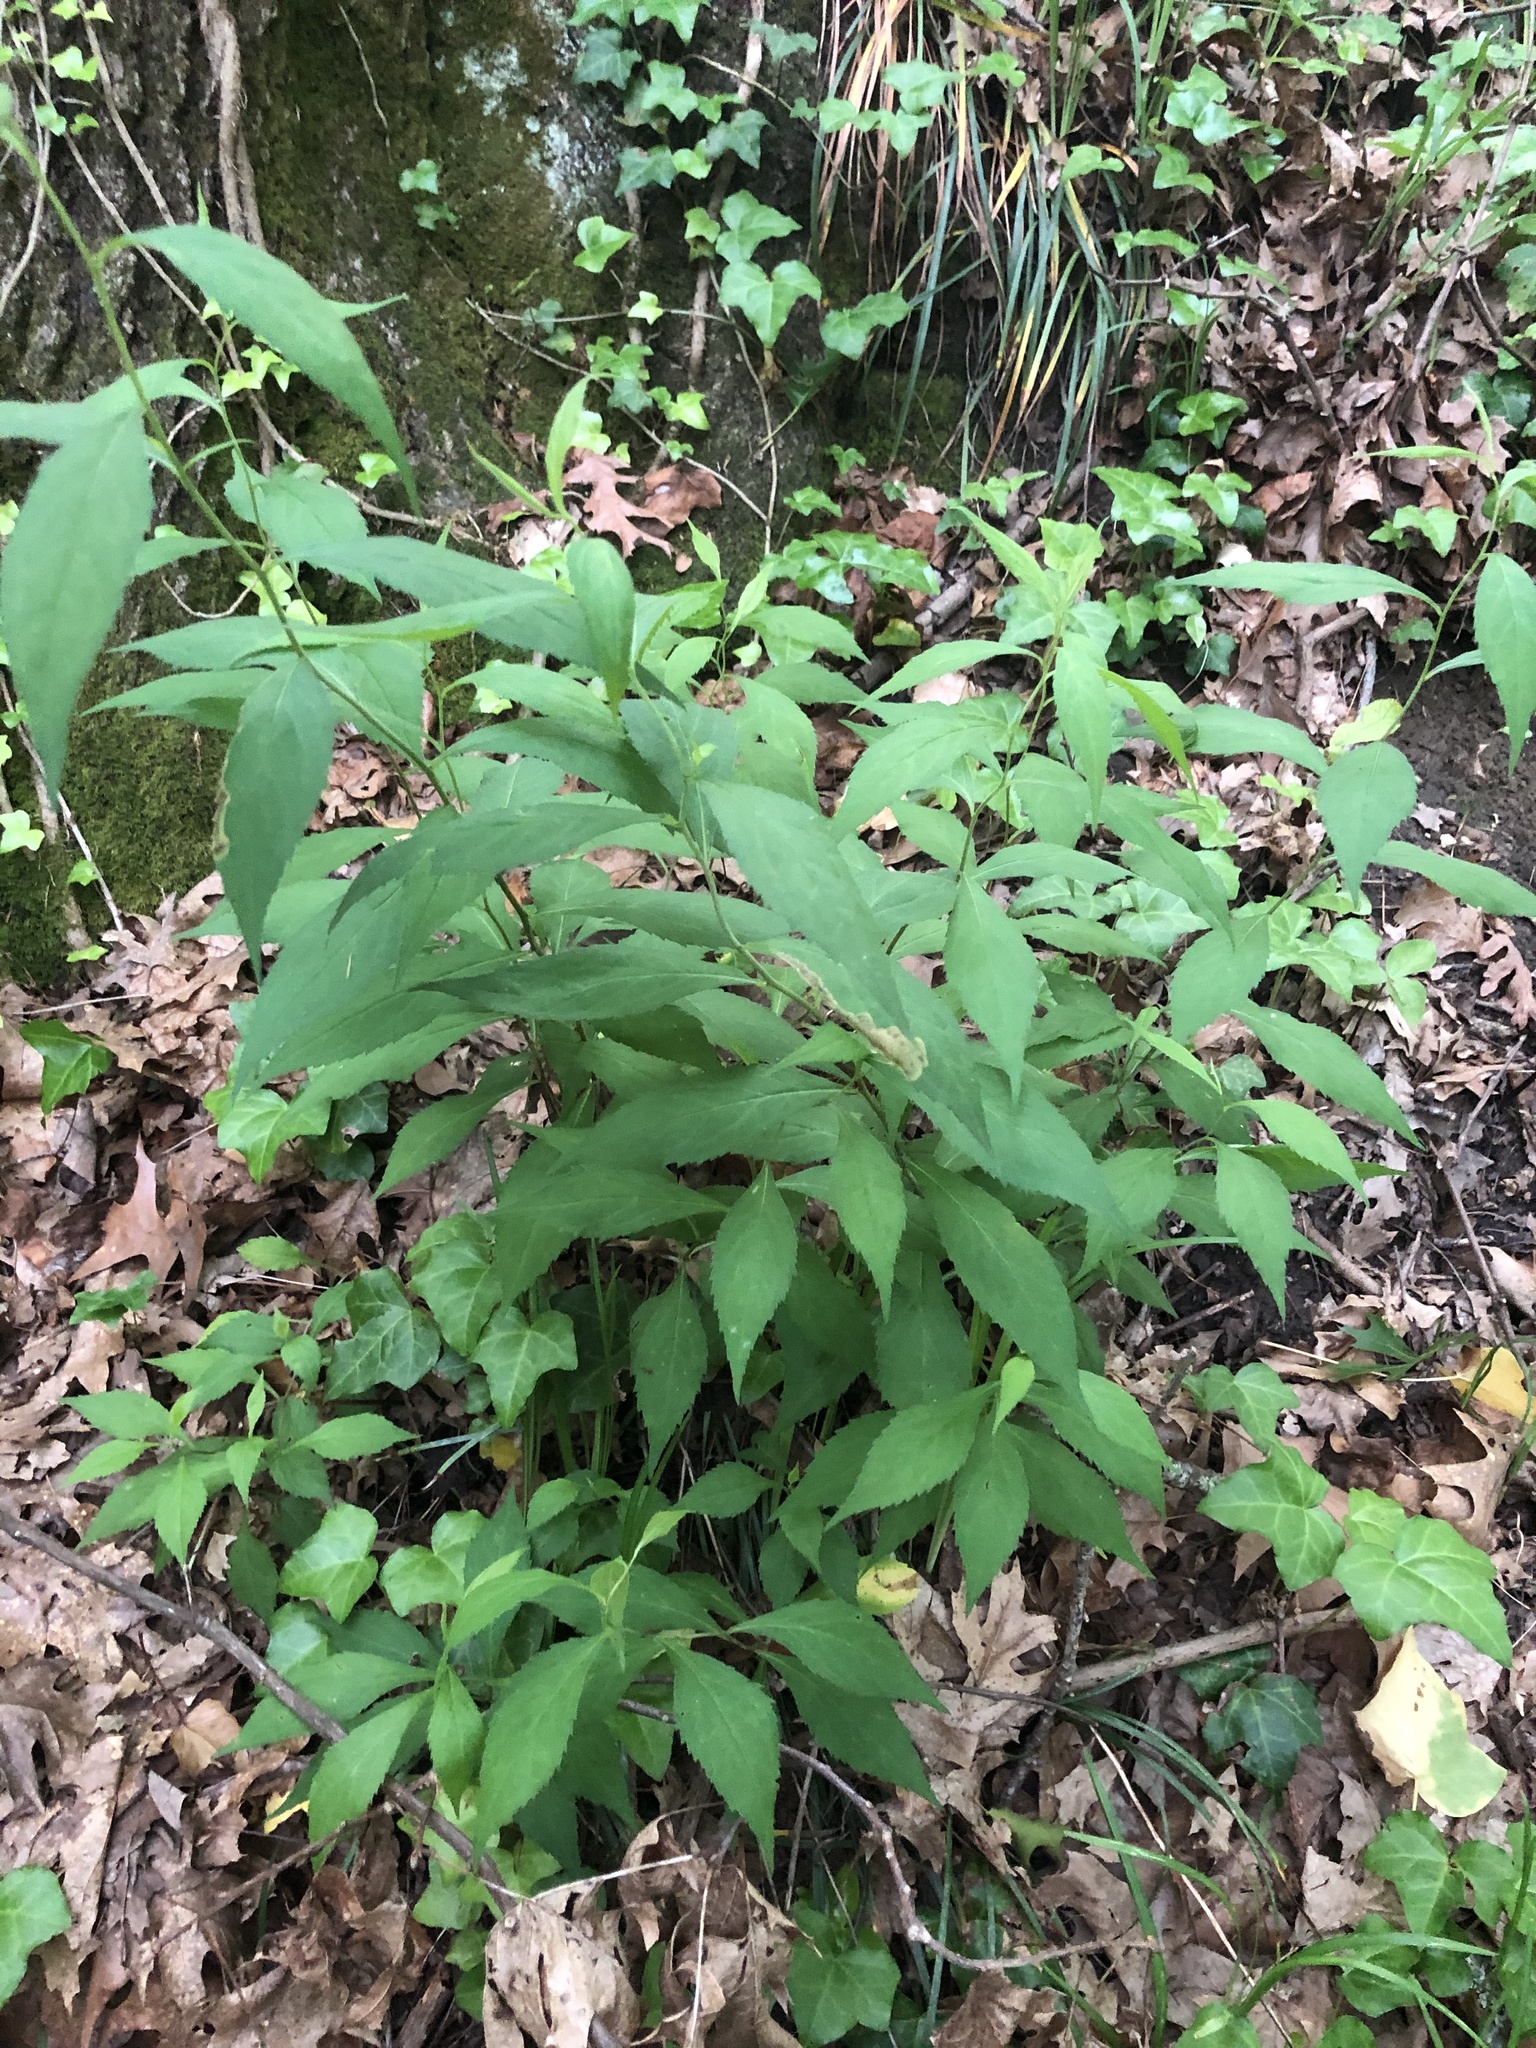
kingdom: Plantae
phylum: Tracheophyta
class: Magnoliopsida
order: Asterales
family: Asteraceae
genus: Solidago
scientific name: Solidago caesia
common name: Woodland goldenrod
